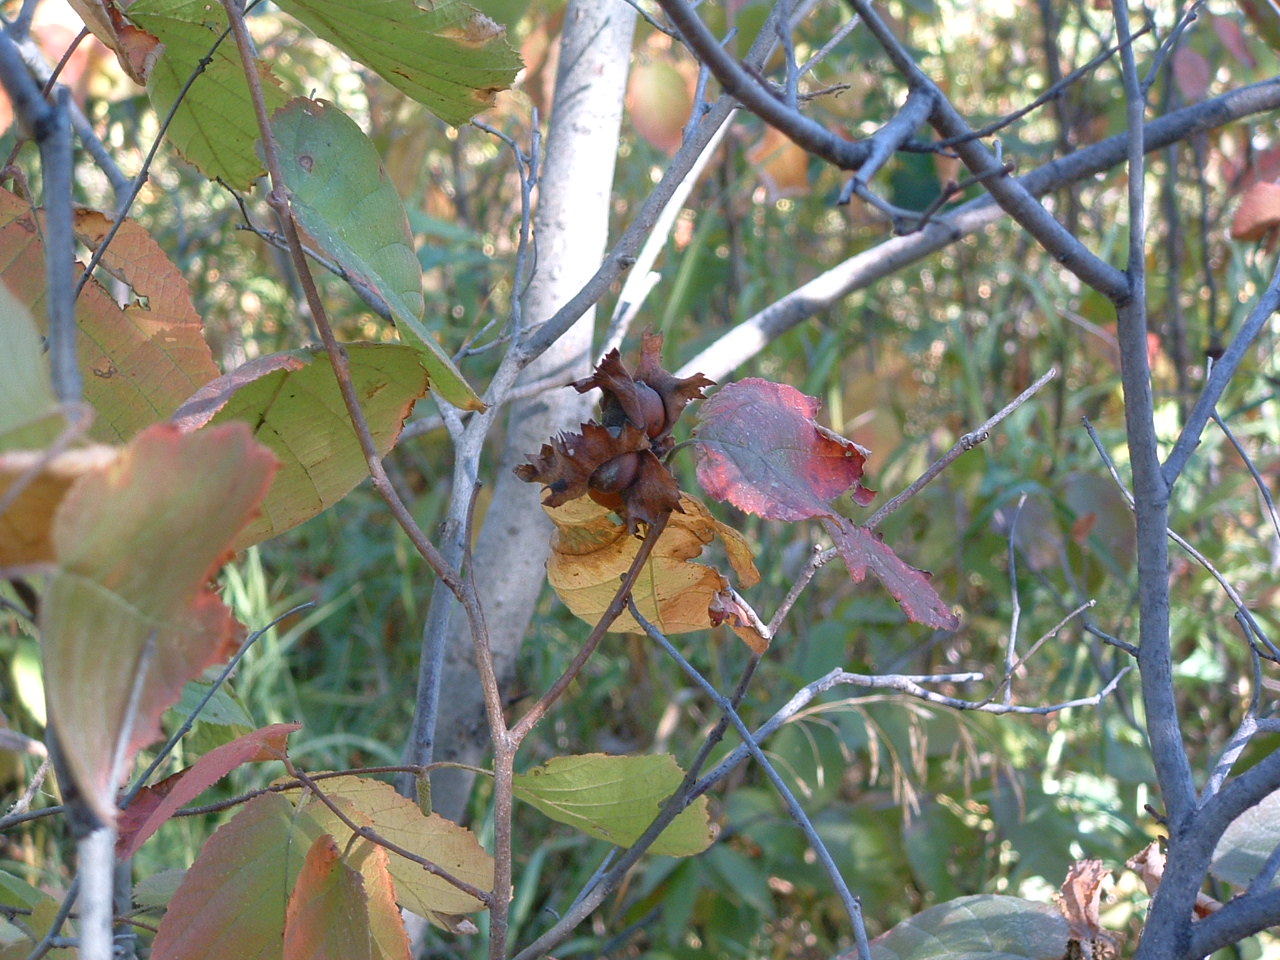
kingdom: Plantae
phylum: Tracheophyta
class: Magnoliopsida
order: Fagales
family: Betulaceae
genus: Corylus
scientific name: Corylus americana
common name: American hazel
